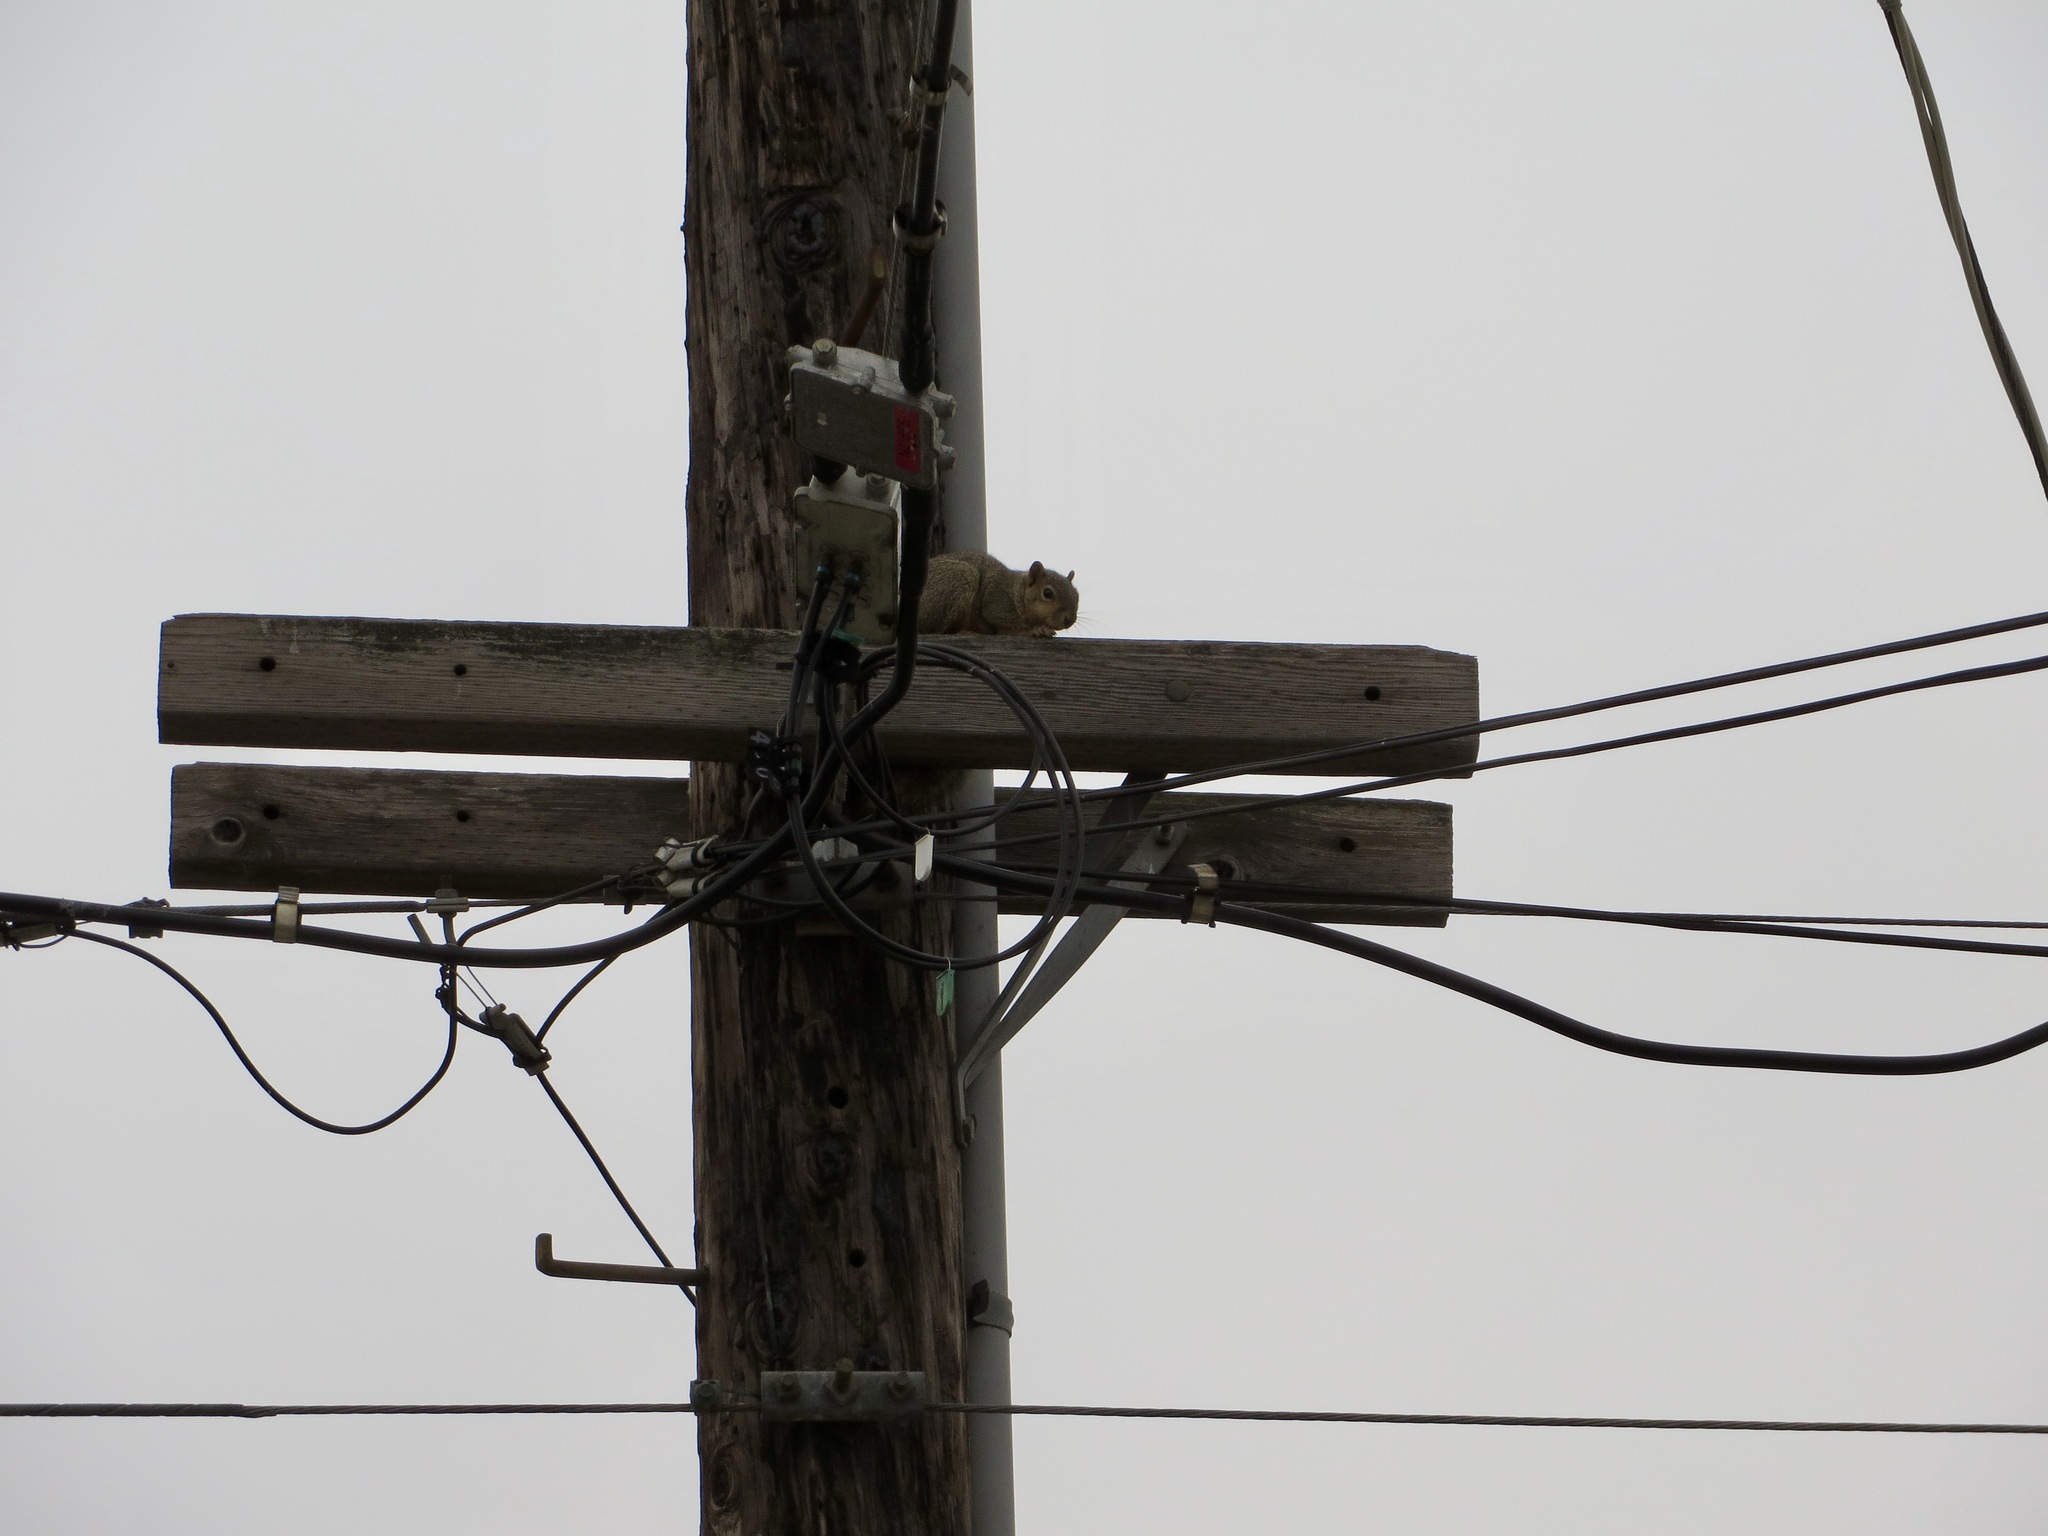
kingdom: Animalia
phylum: Chordata
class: Mammalia
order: Rodentia
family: Sciuridae
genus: Sciurus
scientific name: Sciurus niger
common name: Fox squirrel
